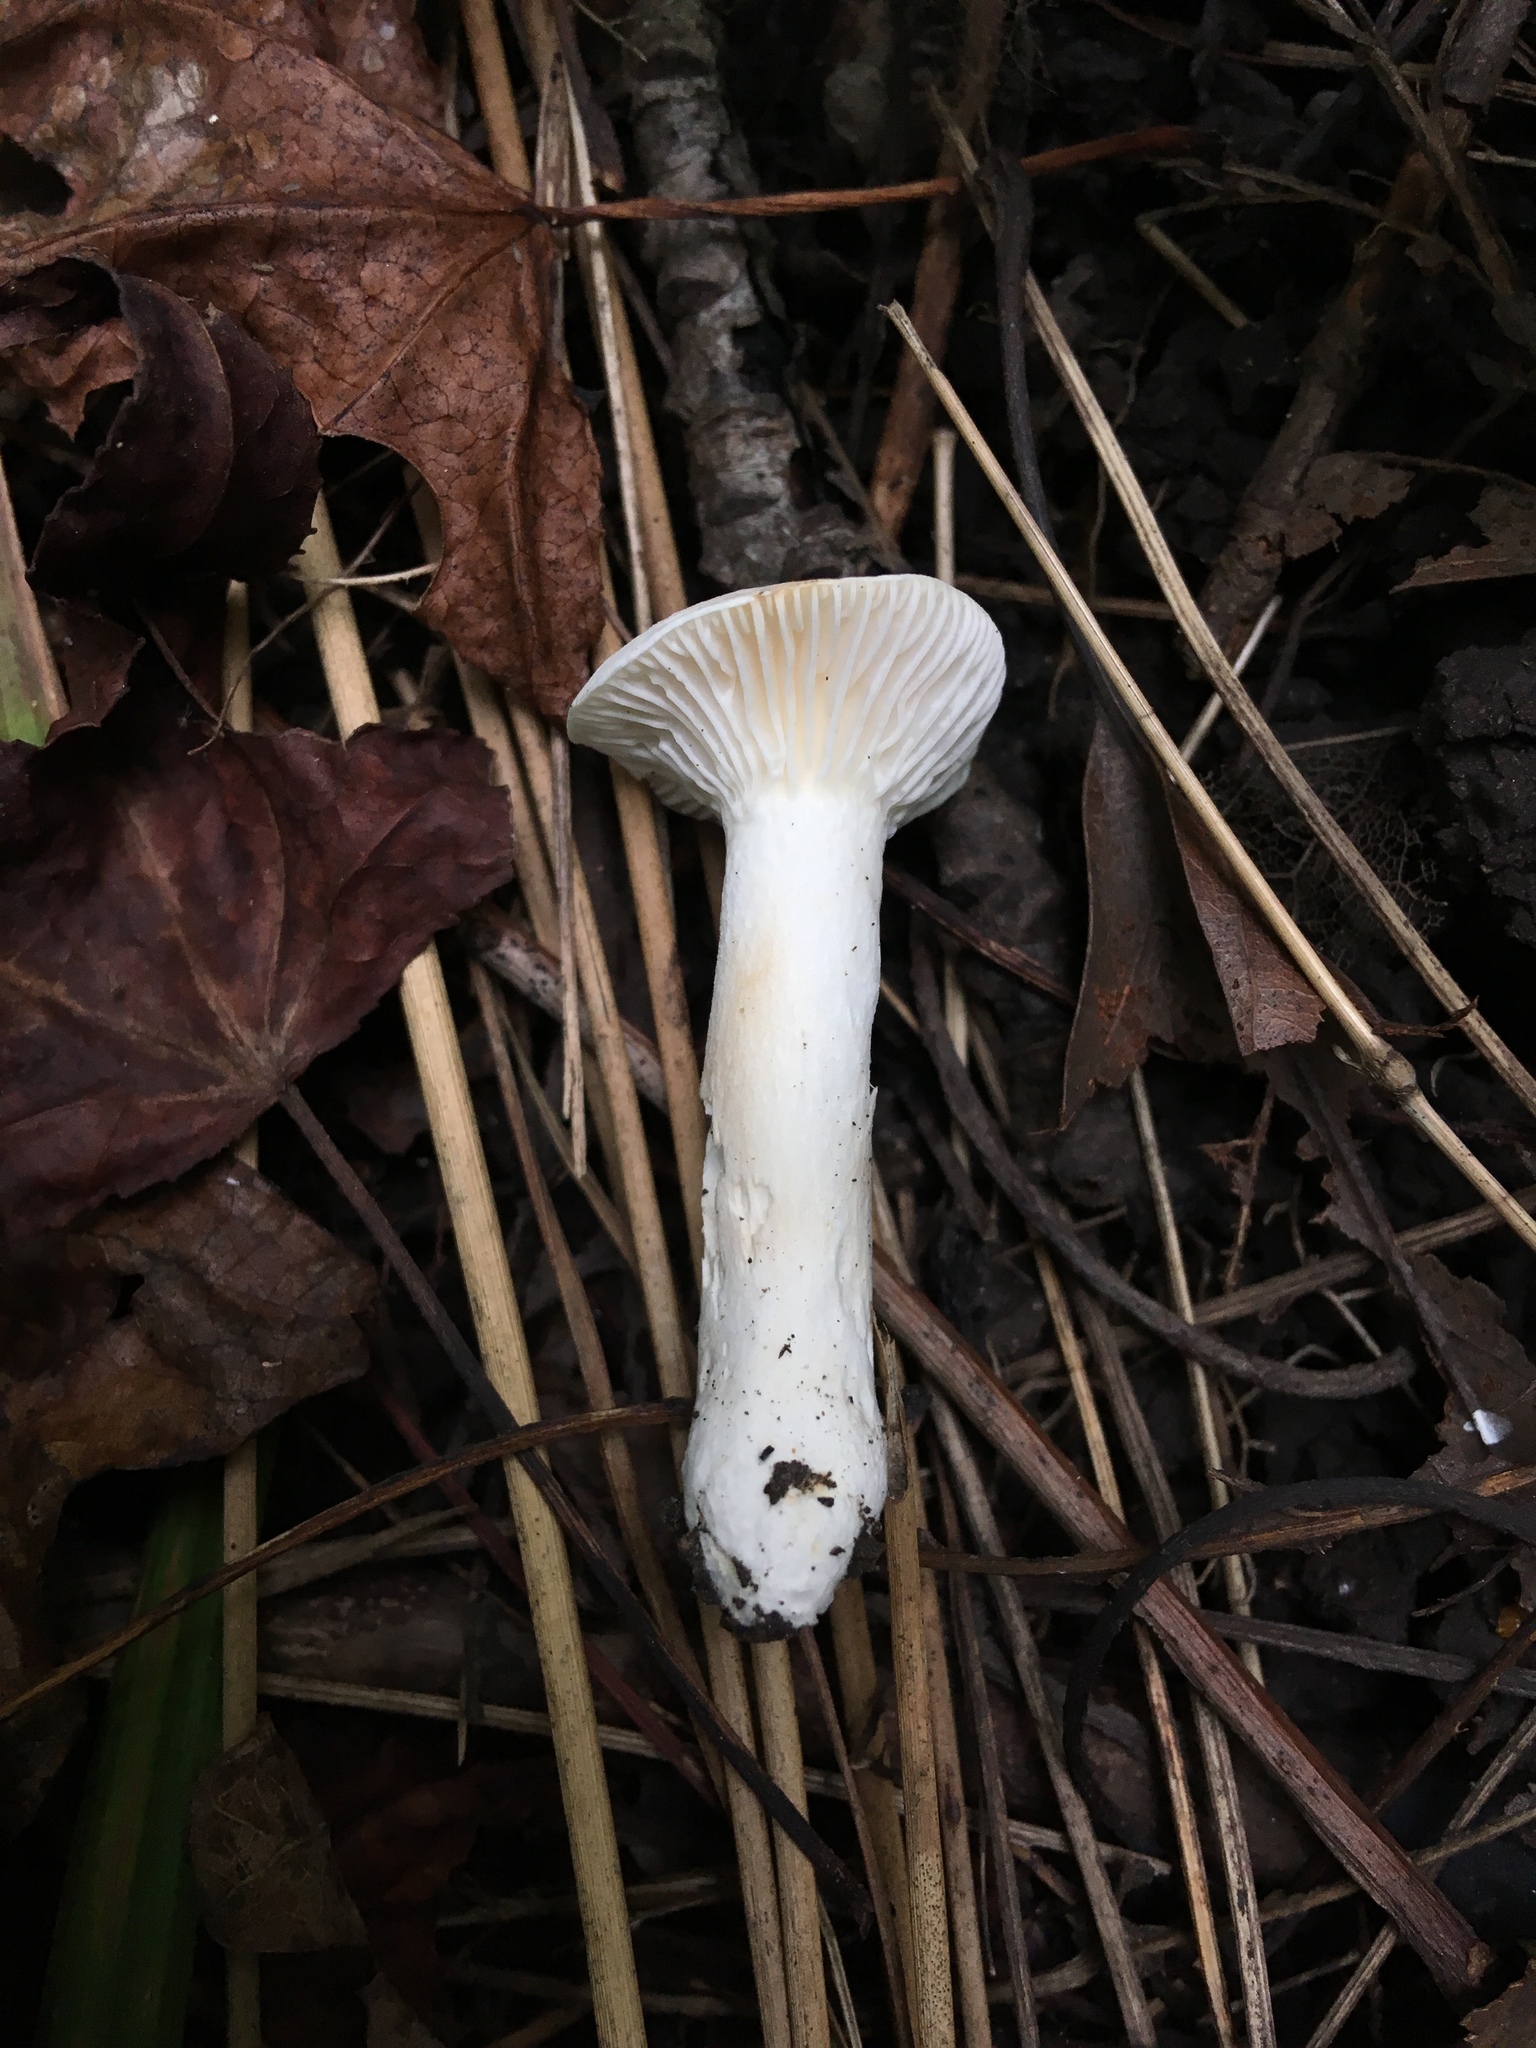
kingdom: Fungi
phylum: Basidiomycota
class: Agaricomycetes
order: Agaricales
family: Hygrophoraceae
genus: Cuphophyllus
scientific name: Cuphophyllus pratensis
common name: Meadow waxcap
